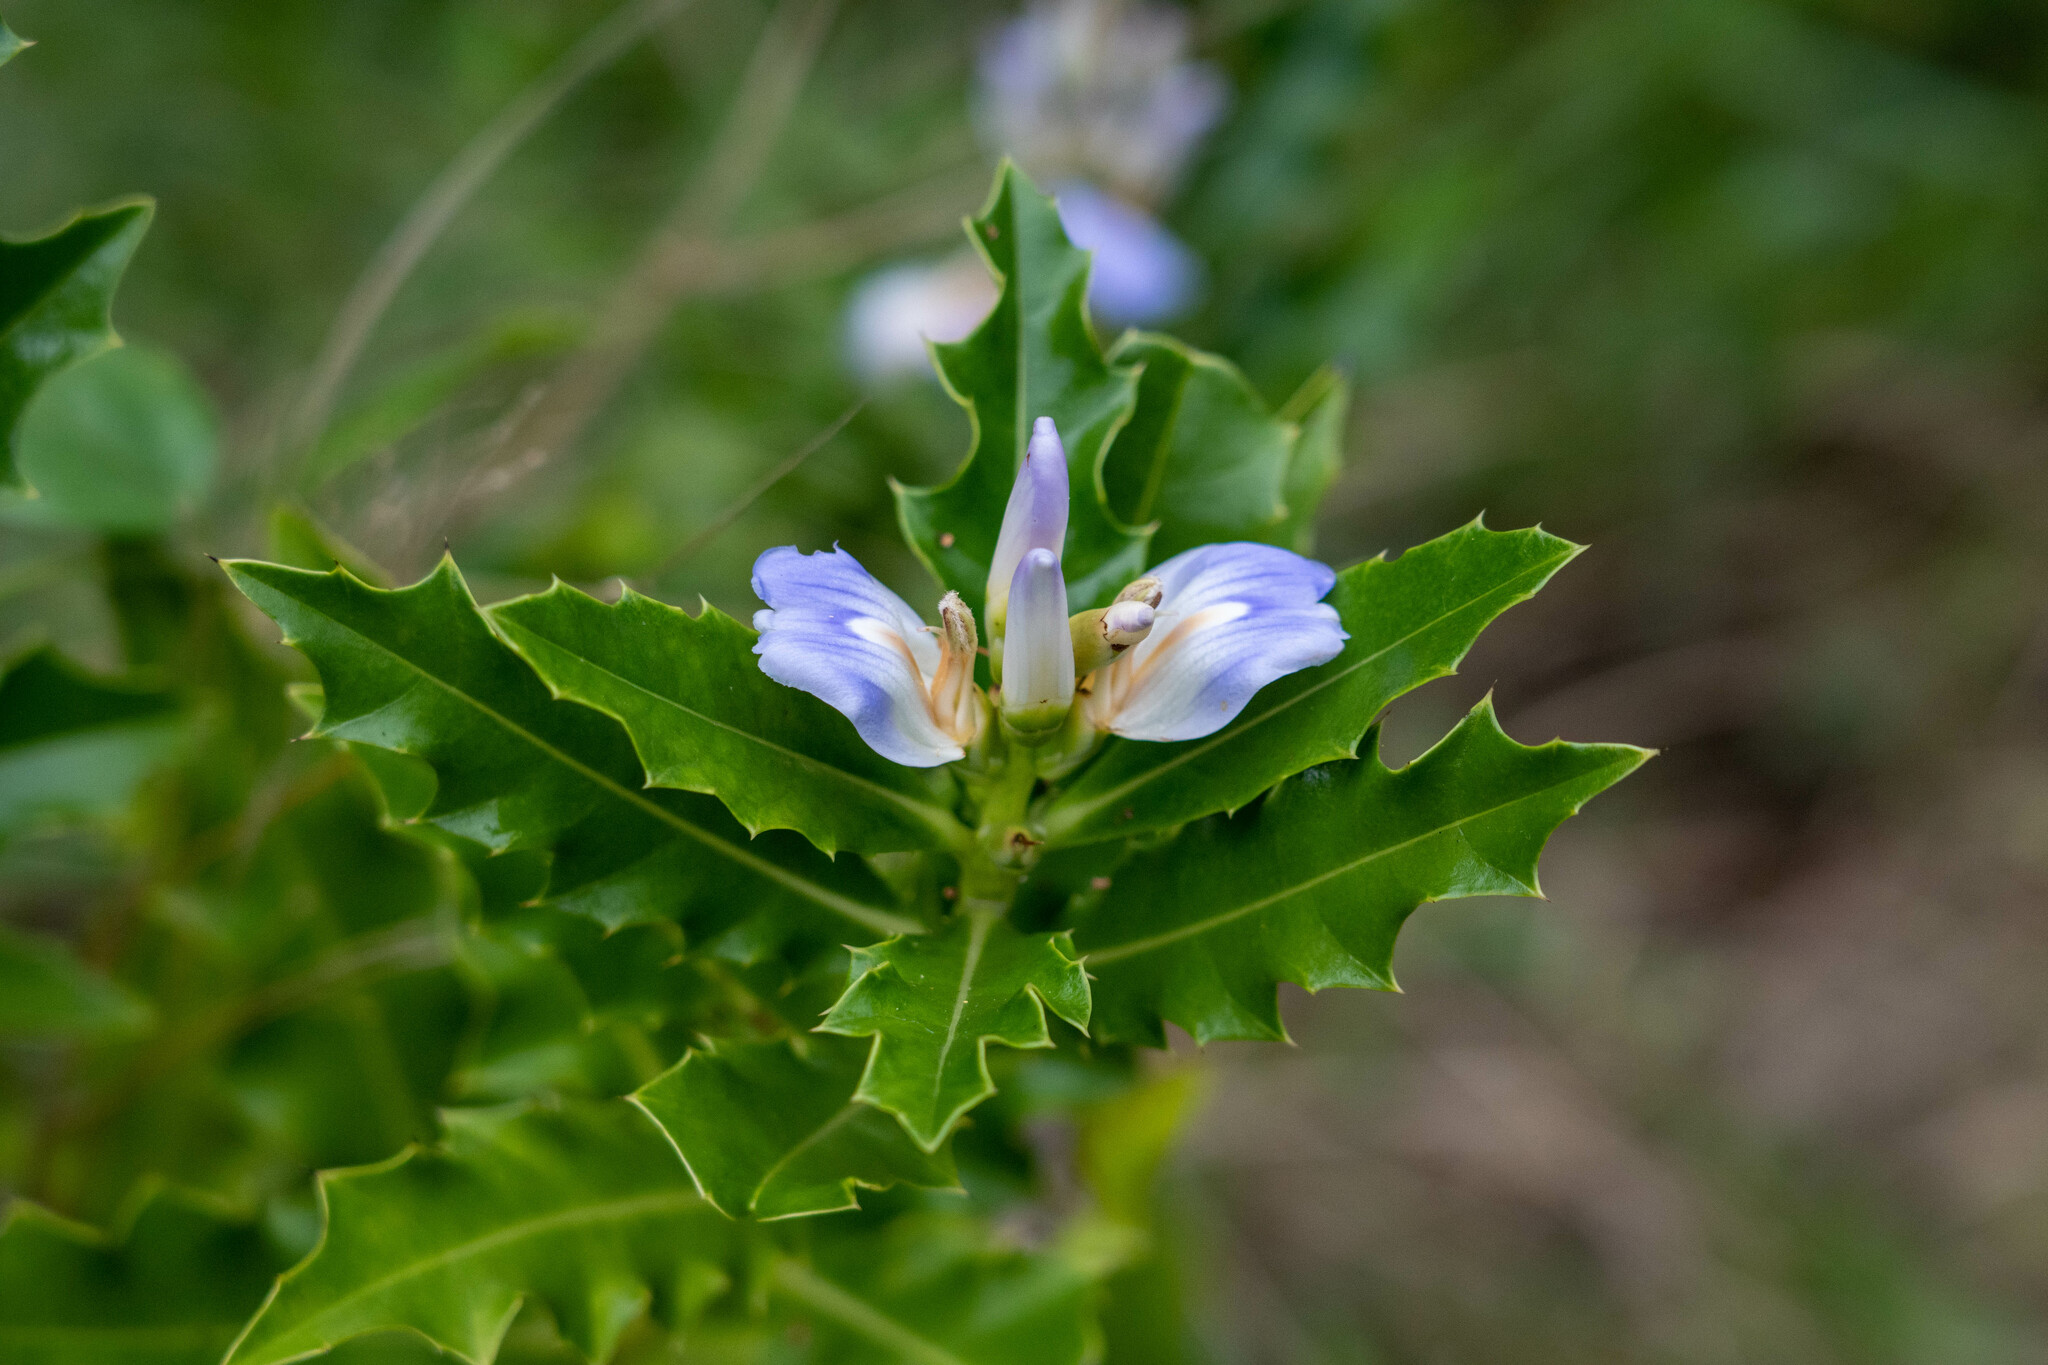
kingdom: Plantae
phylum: Tracheophyta
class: Magnoliopsida
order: Lamiales
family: Acanthaceae
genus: Acanthus
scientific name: Acanthus ilicifolius
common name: Holy mangrove
